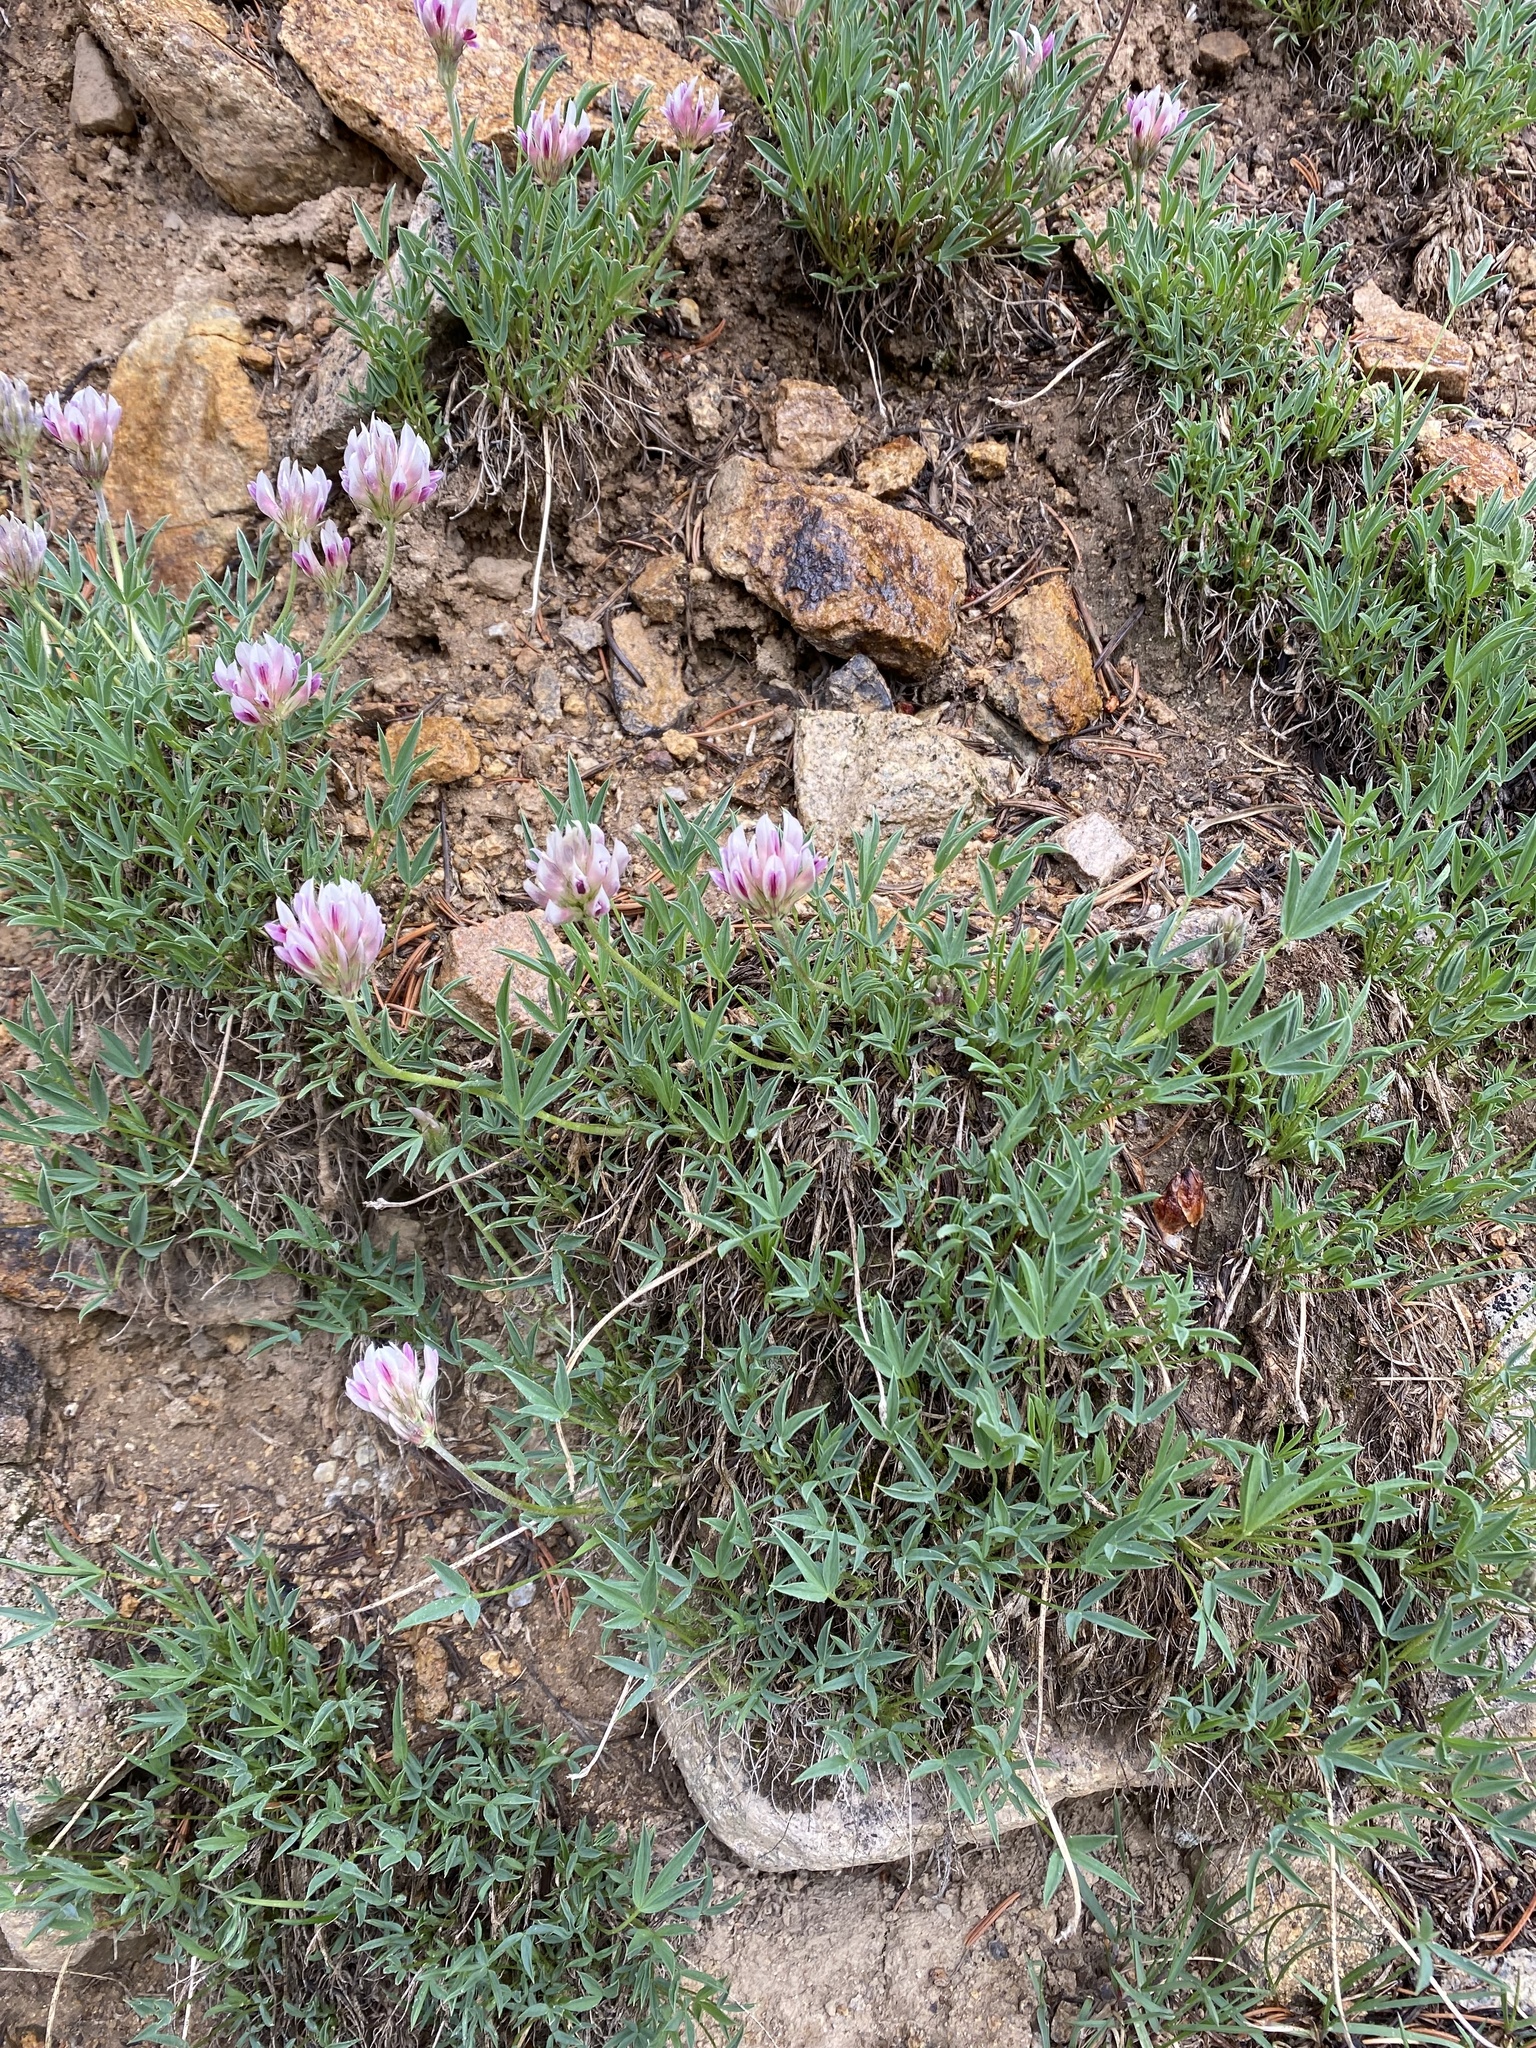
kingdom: Plantae
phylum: Tracheophyta
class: Magnoliopsida
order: Fabales
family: Fabaceae
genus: Trifolium
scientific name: Trifolium dasyphyllum
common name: Whip-root clover
